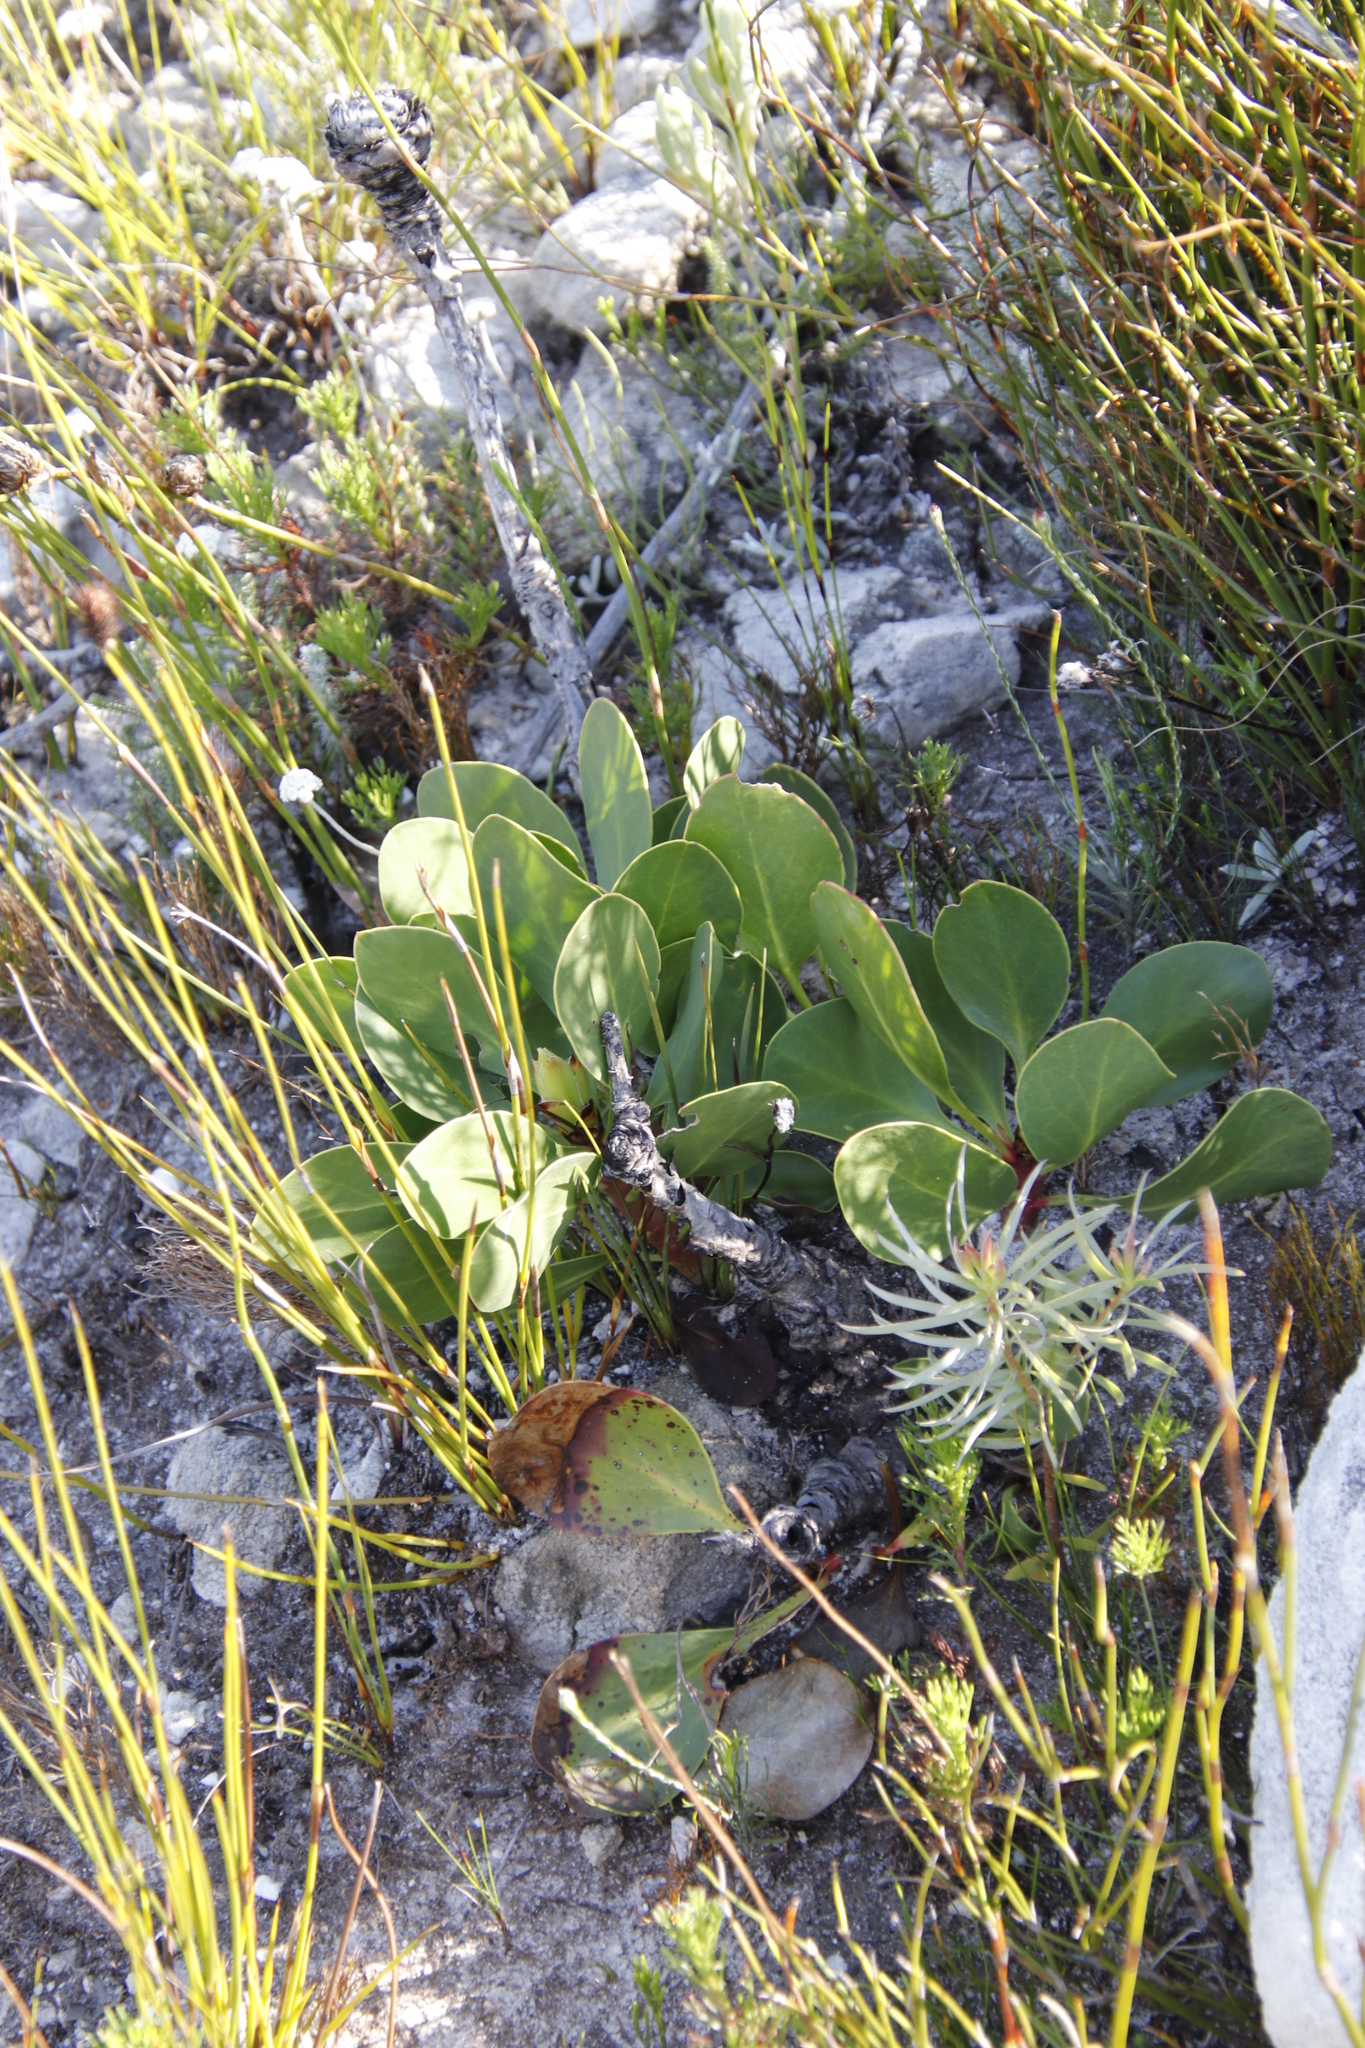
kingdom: Plantae
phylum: Tracheophyta
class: Magnoliopsida
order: Proteales
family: Proteaceae
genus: Protea
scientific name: Protea cynaroides
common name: King protea
